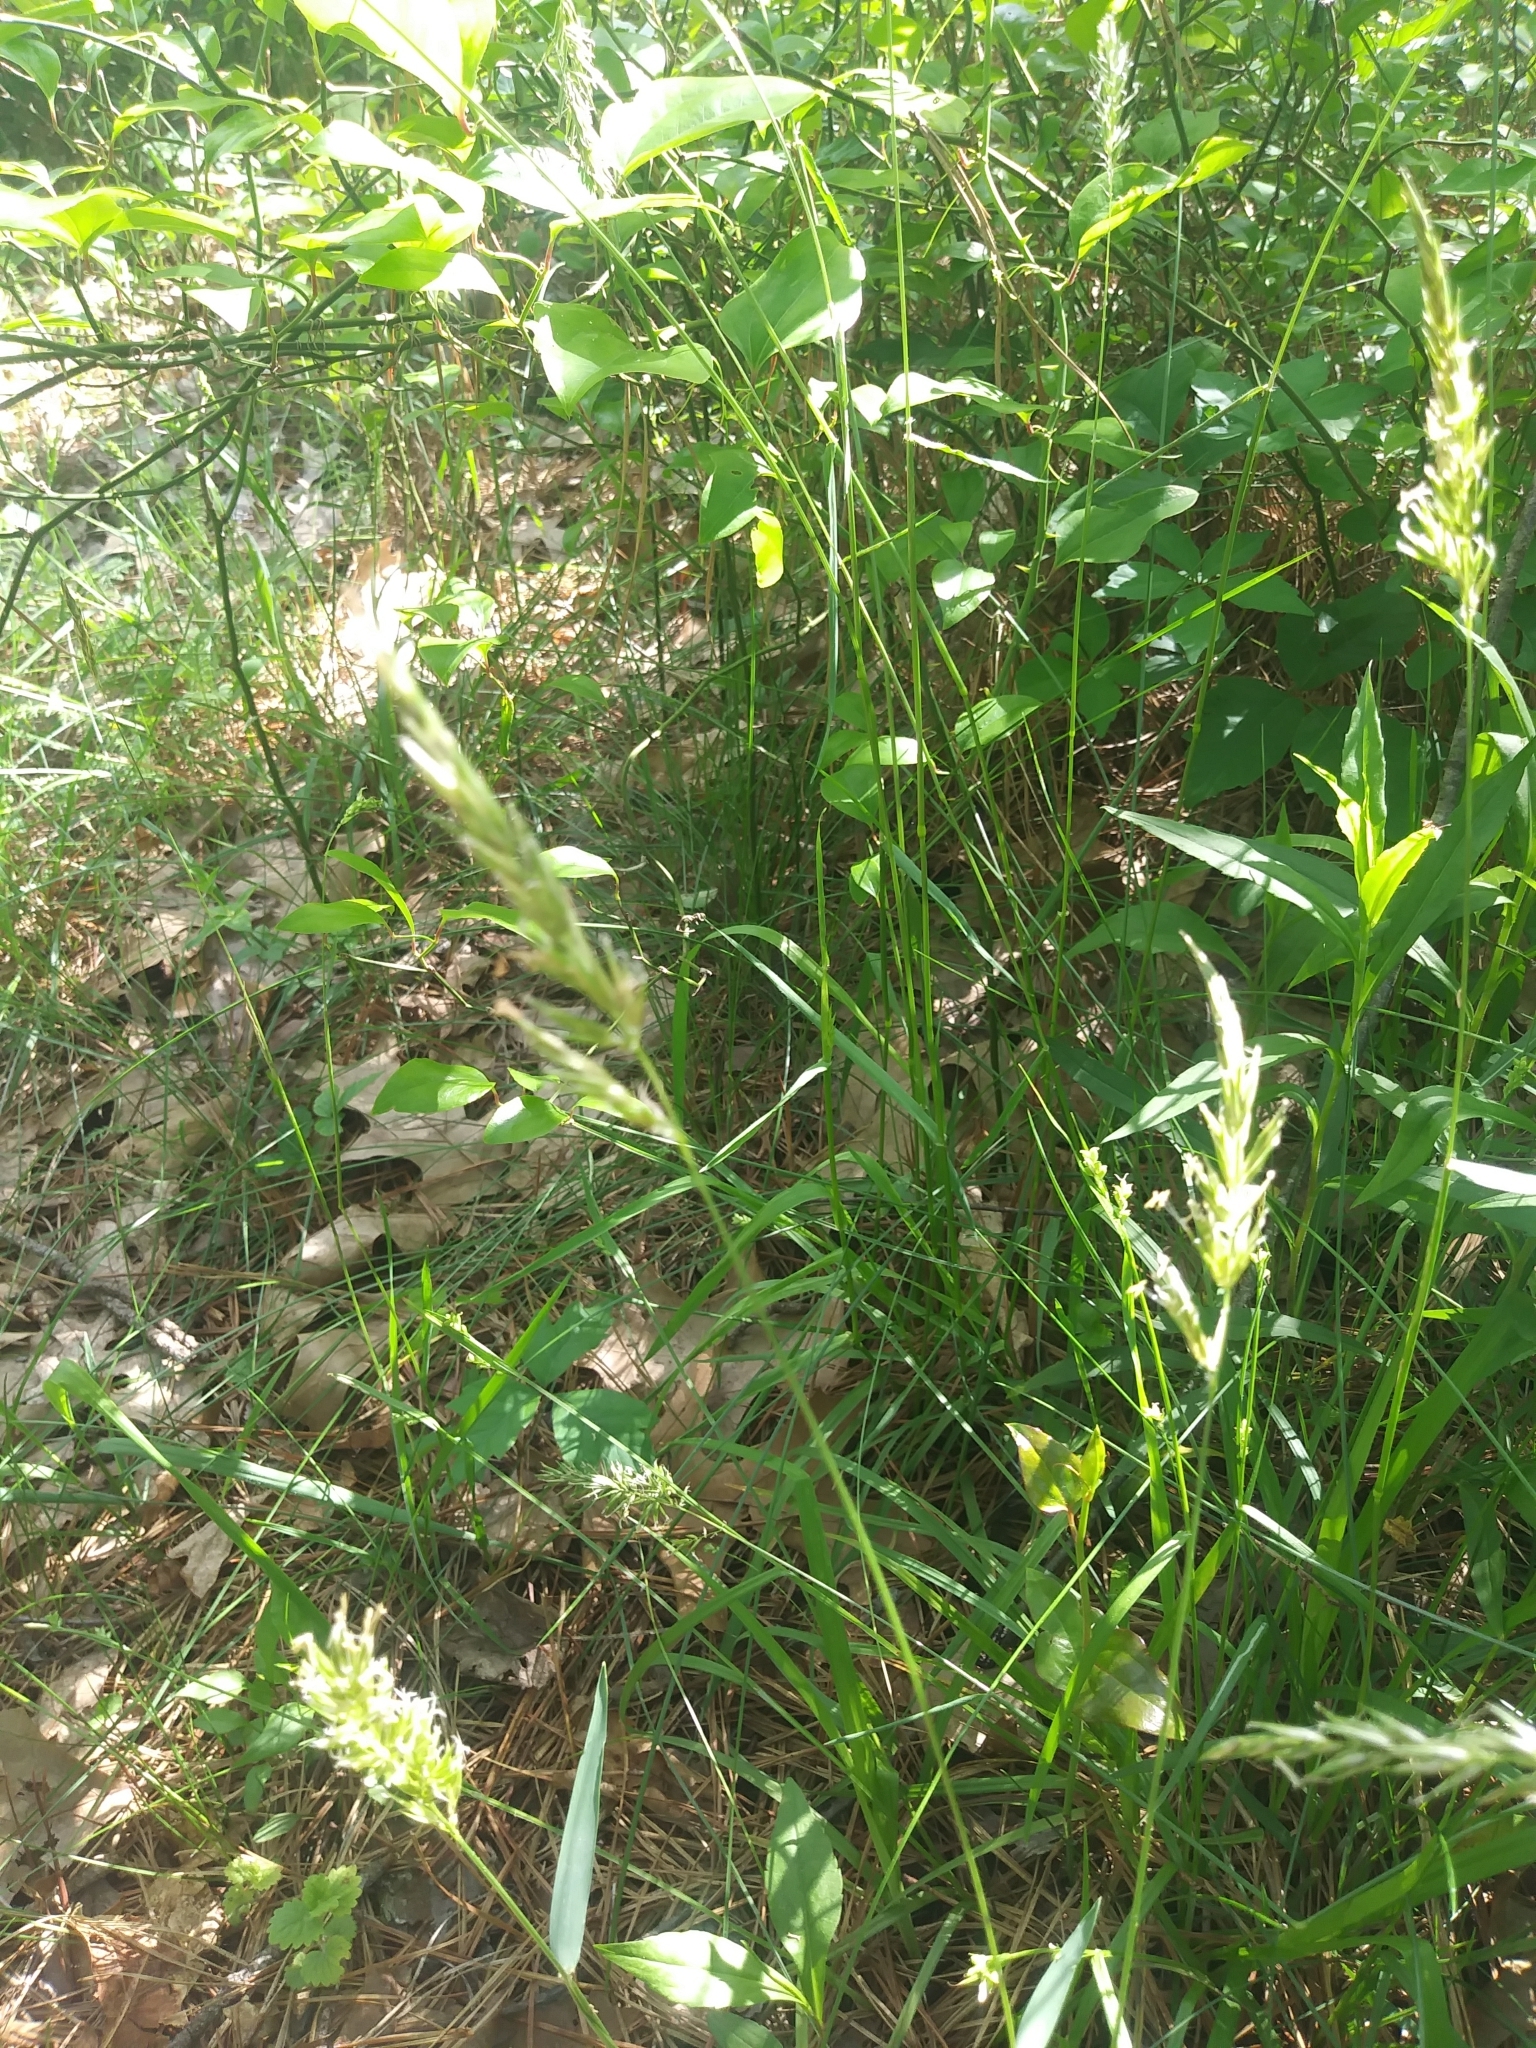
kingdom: Plantae
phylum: Tracheophyta
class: Liliopsida
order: Poales
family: Poaceae
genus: Anthoxanthum
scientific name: Anthoxanthum odoratum
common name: Sweet vernalgrass
